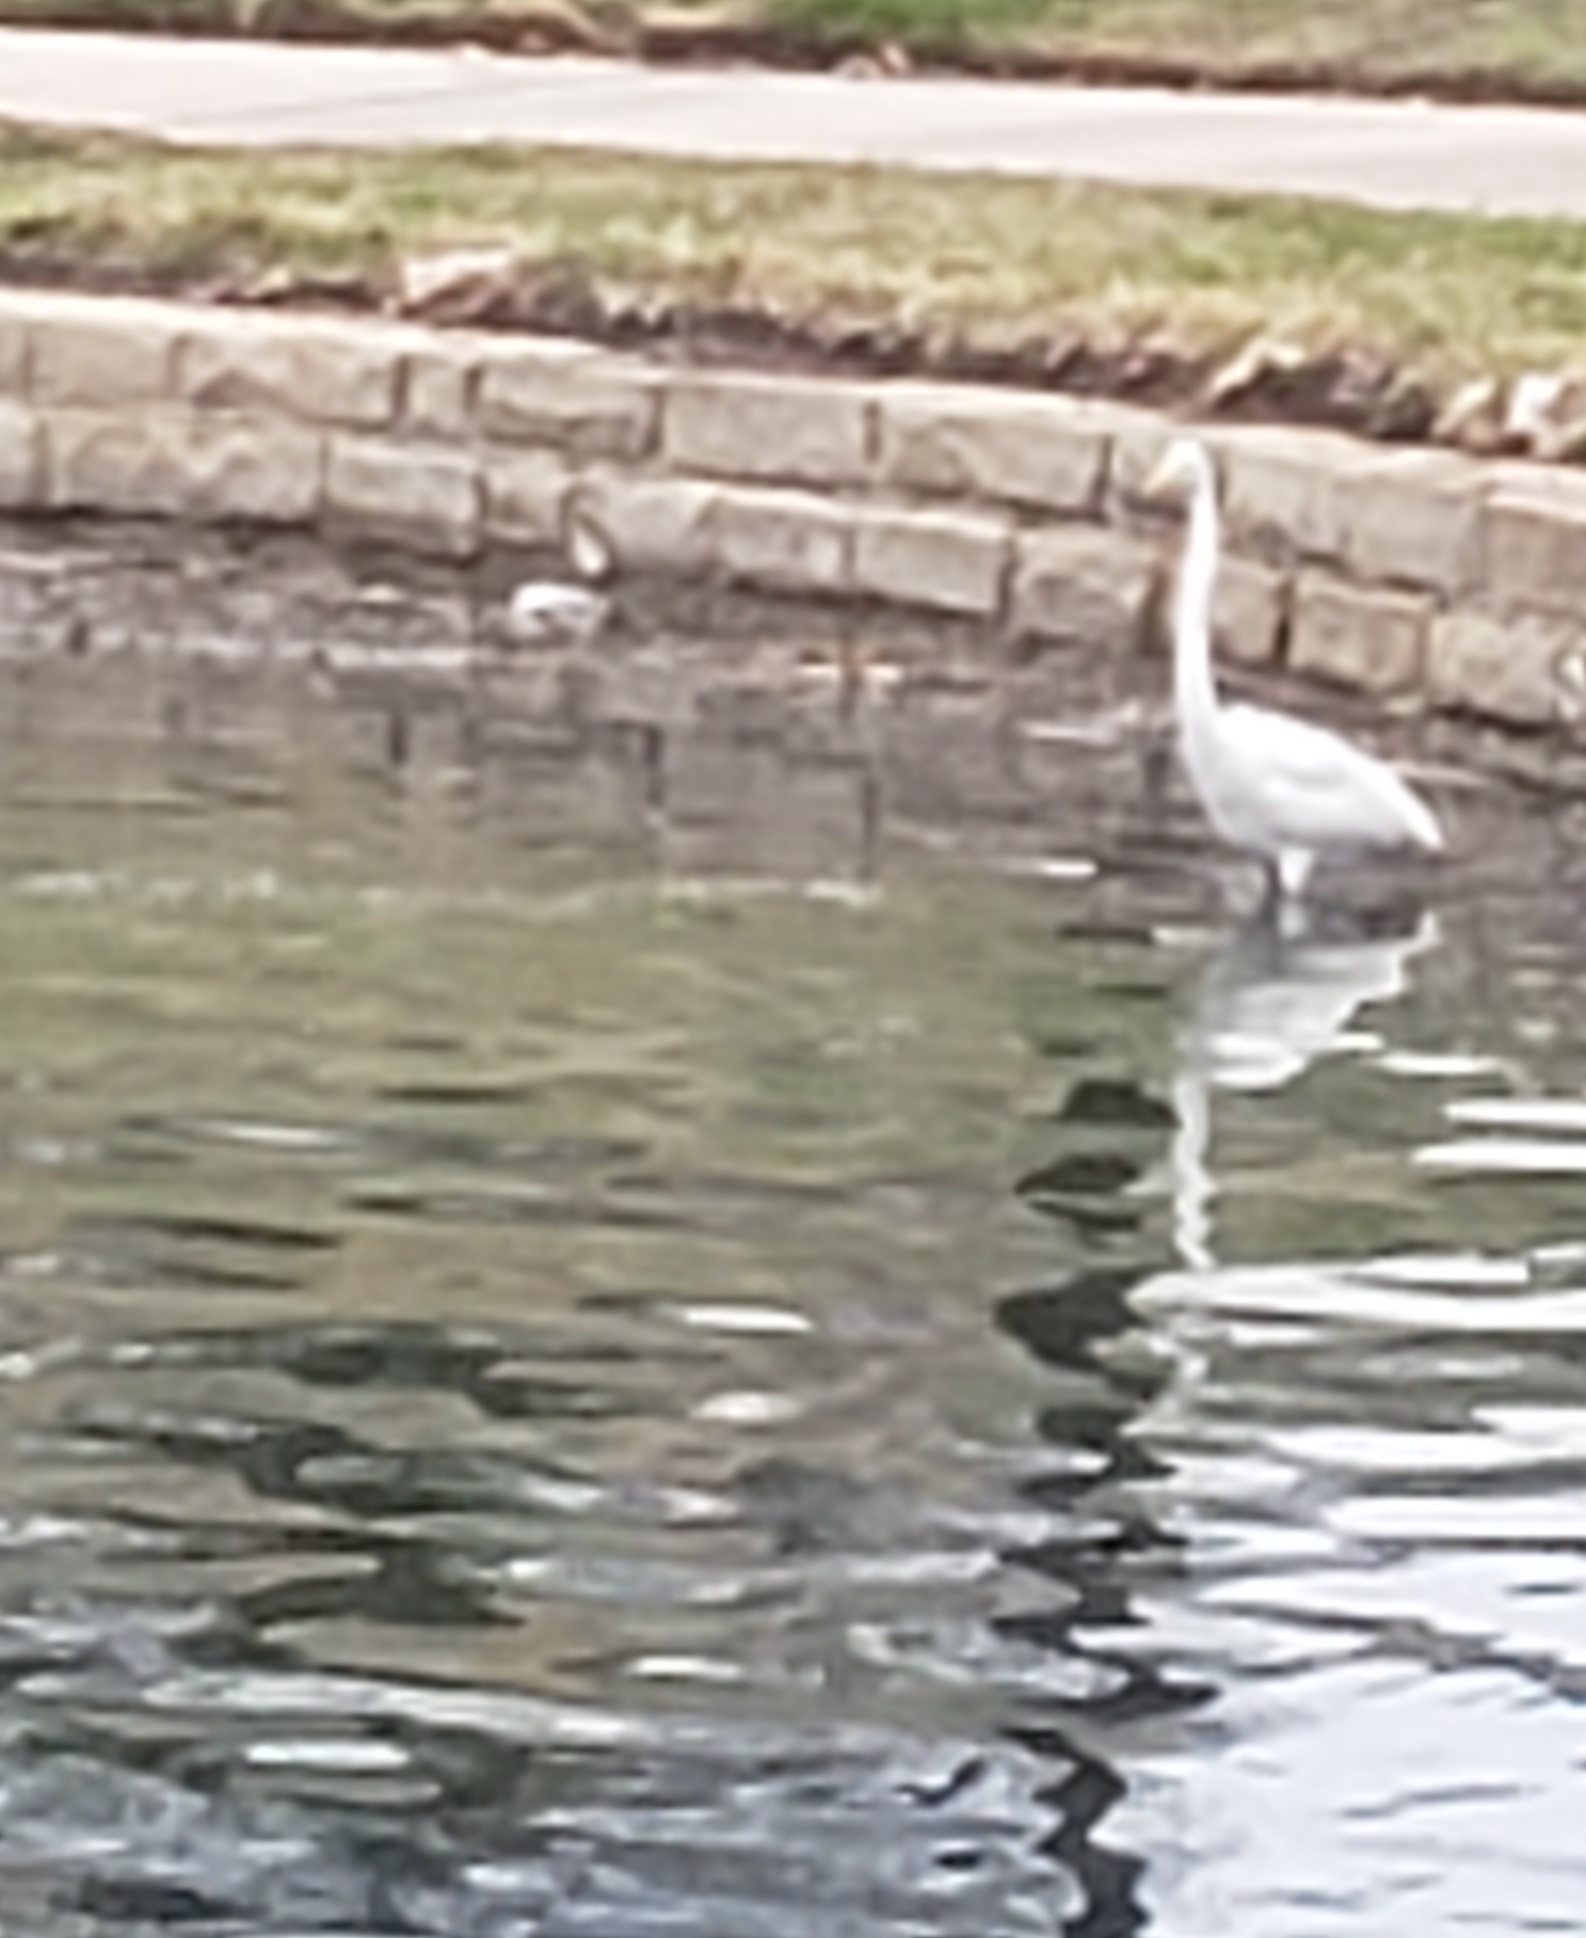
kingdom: Animalia
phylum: Chordata
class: Aves
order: Pelecaniformes
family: Ardeidae
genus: Ardea
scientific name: Ardea alba
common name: Great egret
